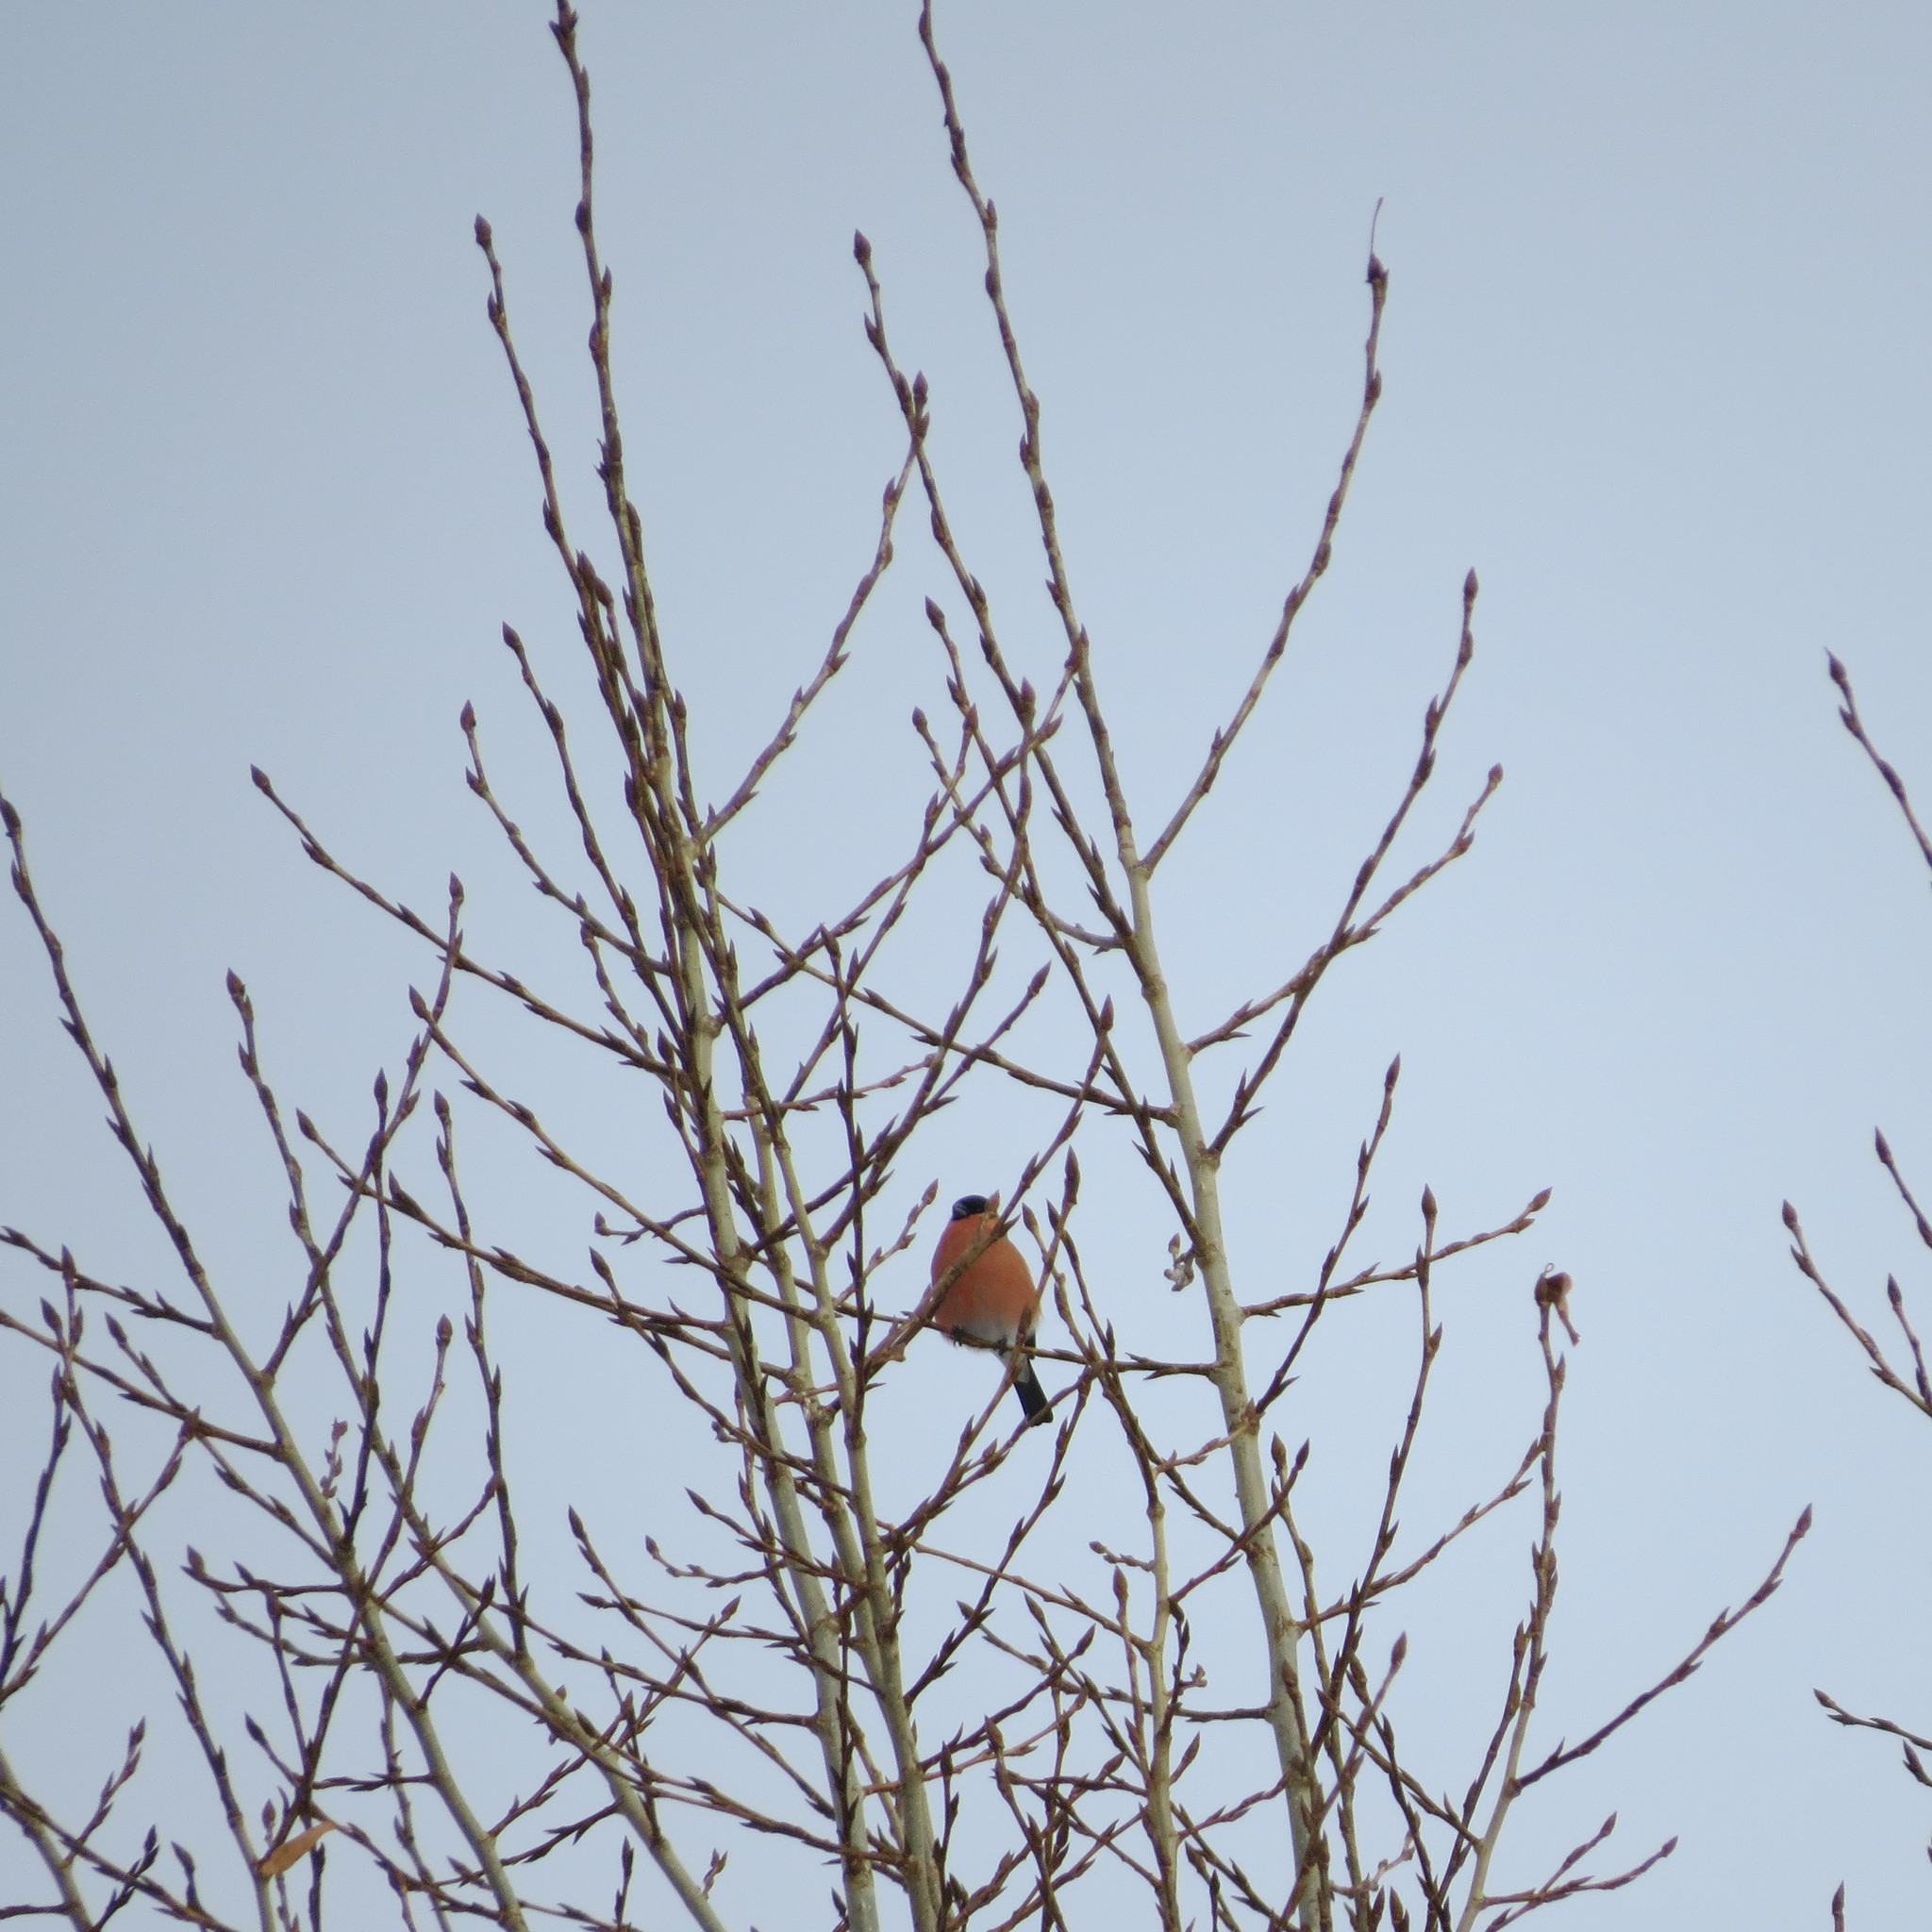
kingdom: Animalia
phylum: Chordata
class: Aves
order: Passeriformes
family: Fringillidae
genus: Pyrrhula
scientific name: Pyrrhula pyrrhula
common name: Eurasian bullfinch
